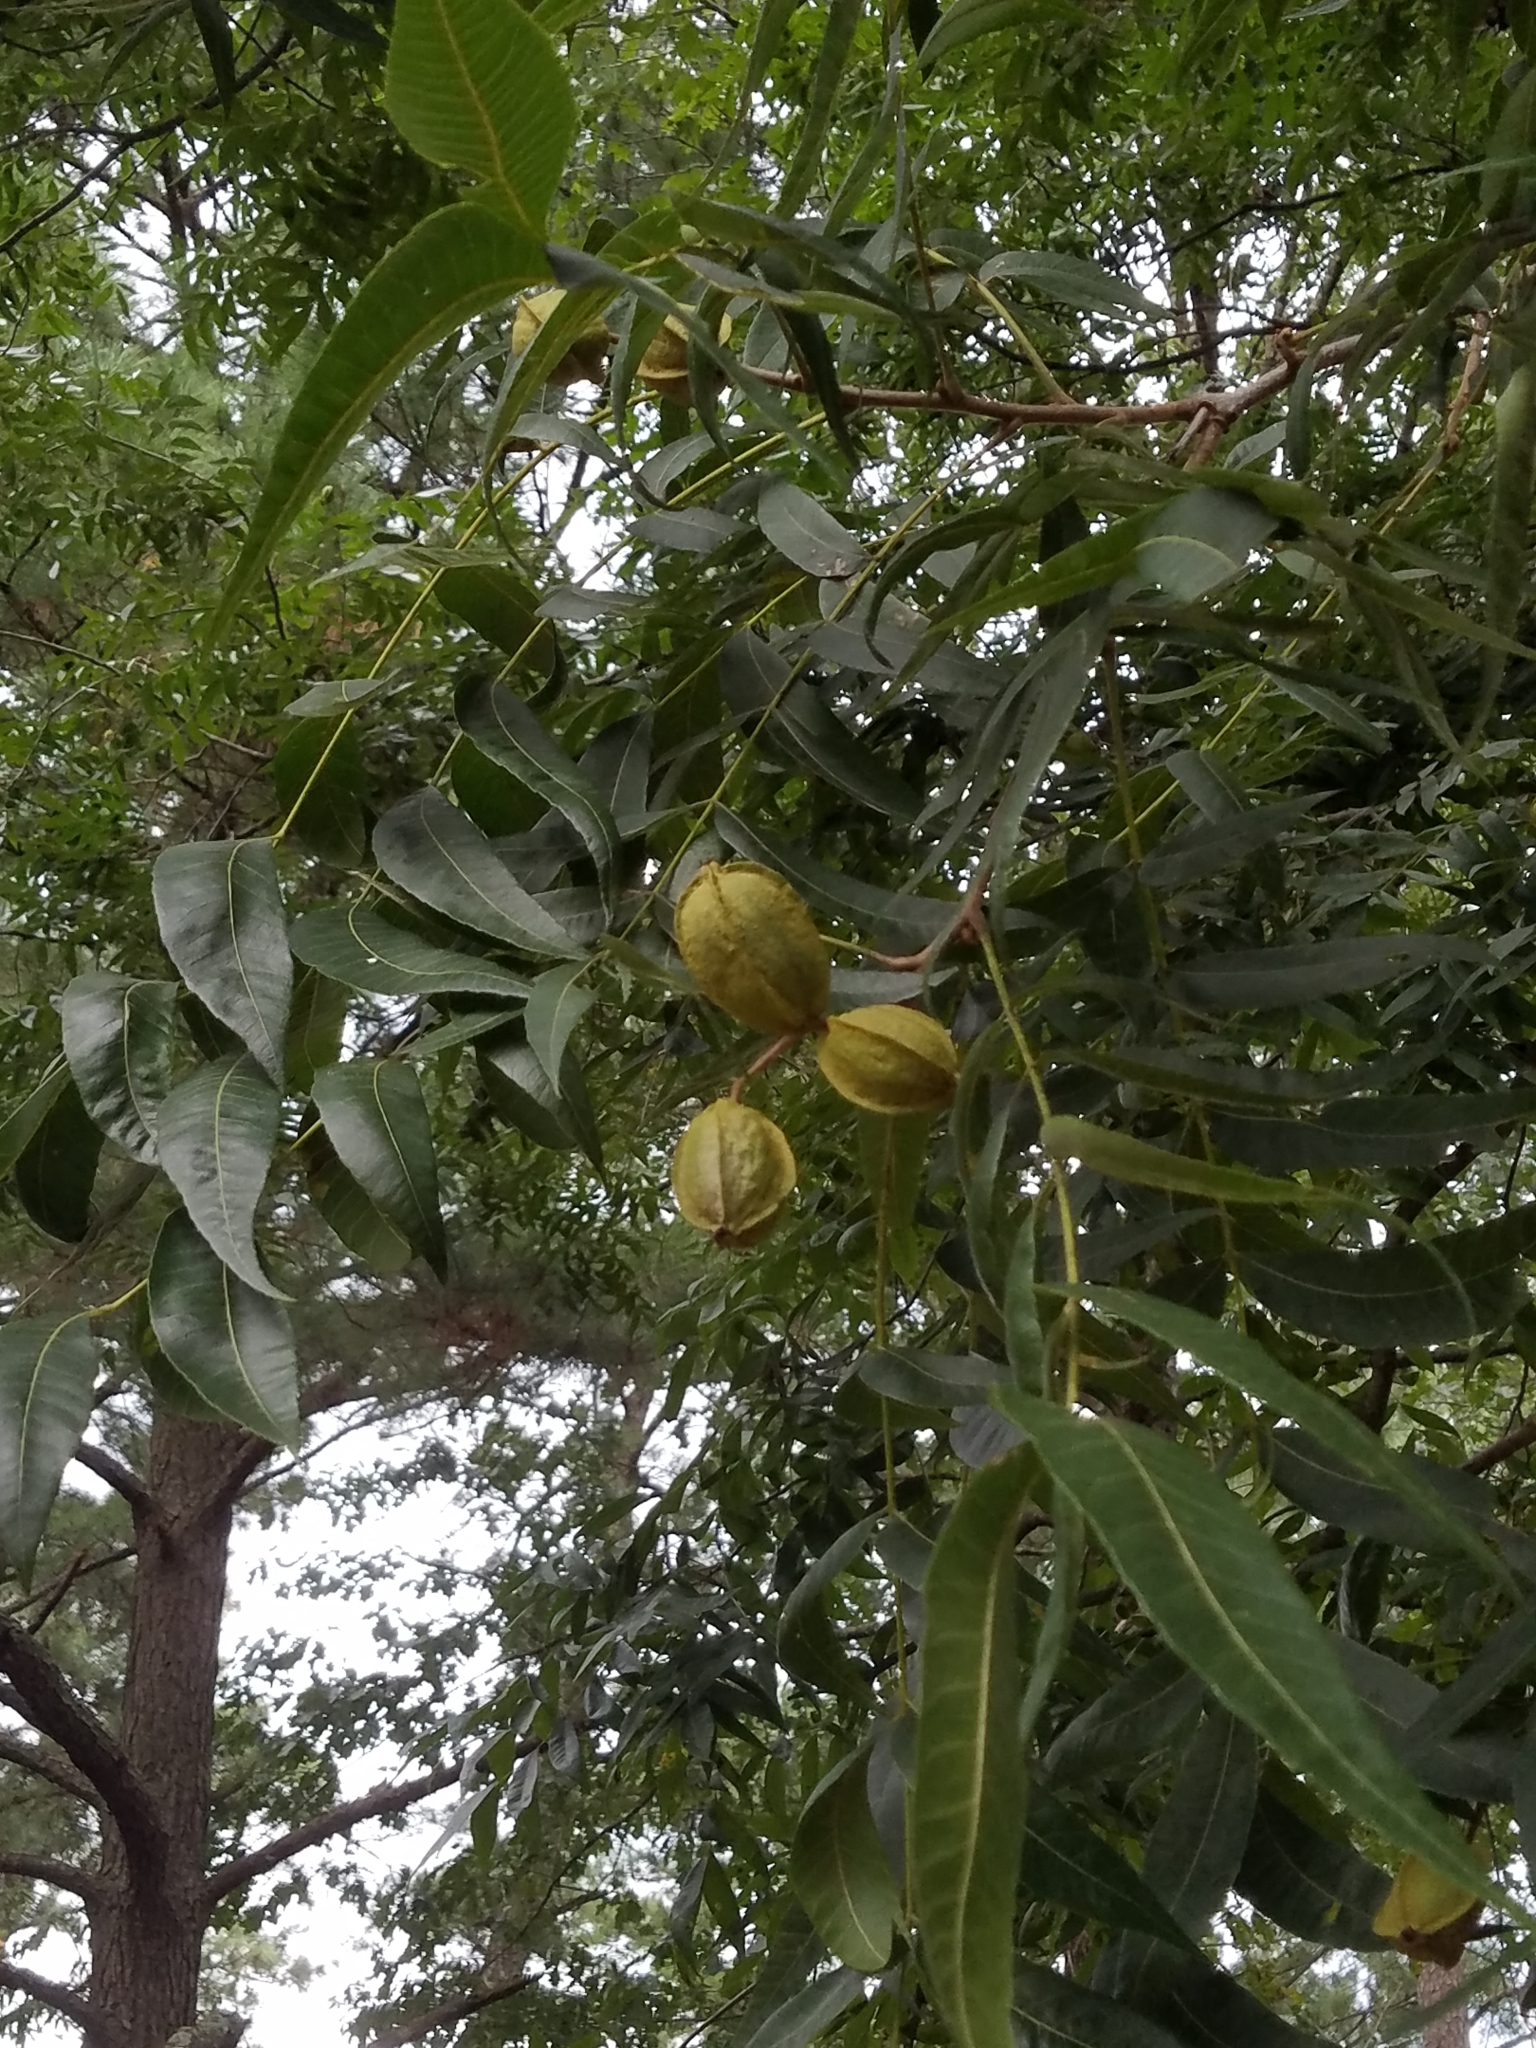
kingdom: Plantae
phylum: Tracheophyta
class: Magnoliopsida
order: Fagales
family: Juglandaceae
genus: Carya
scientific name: Carya illinoinensis
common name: Pecan
